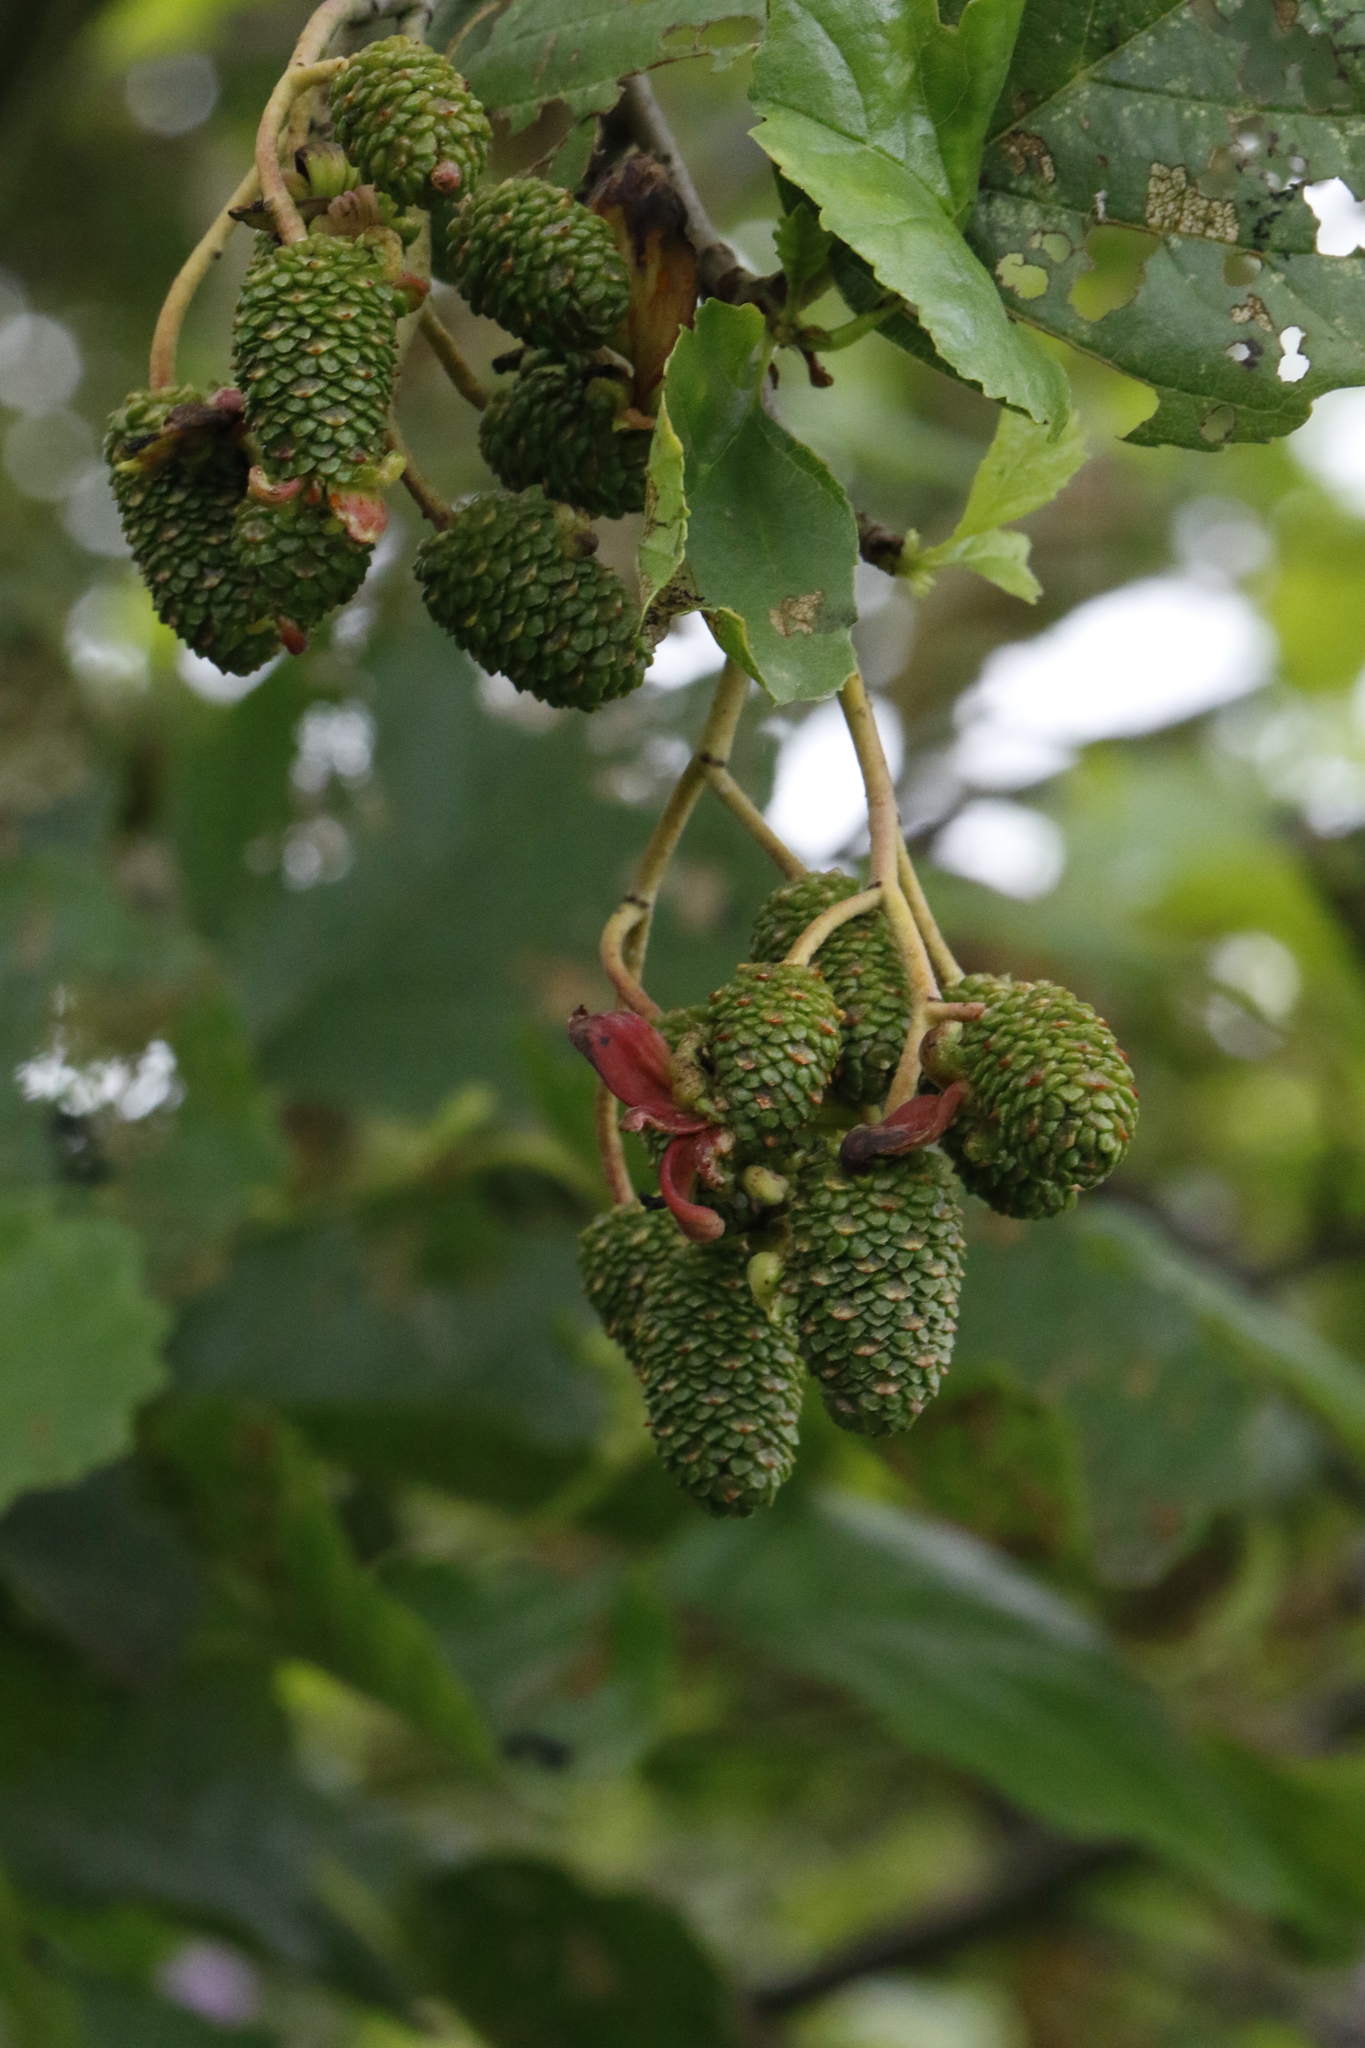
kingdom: Plantae
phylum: Tracheophyta
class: Magnoliopsida
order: Fagales
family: Betulaceae
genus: Alnus
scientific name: Alnus glutinosa
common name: Black alder
